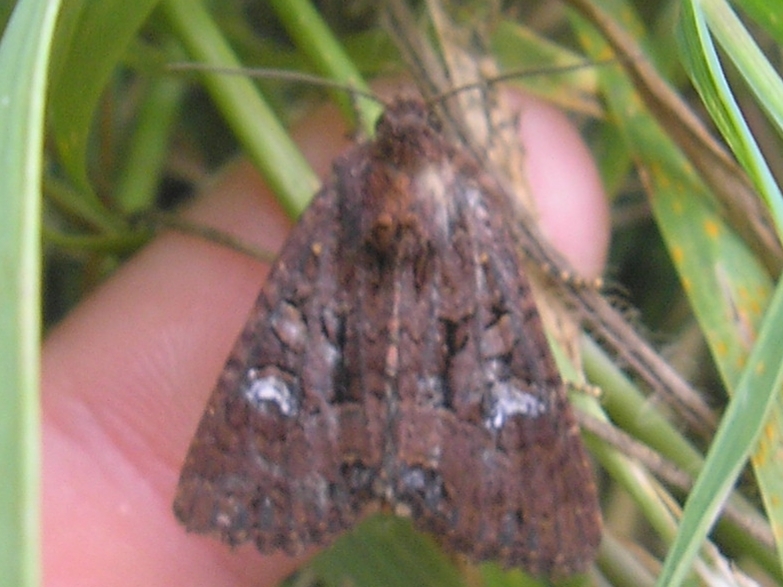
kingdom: Animalia
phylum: Arthropoda
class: Insecta
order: Lepidoptera
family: Noctuidae
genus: Mesapamea
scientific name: Mesapamea
